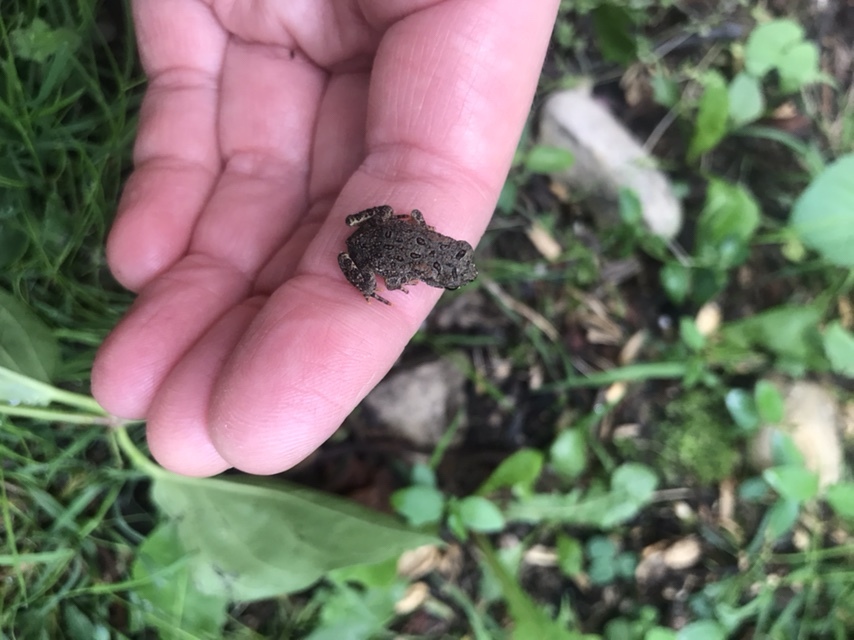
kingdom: Animalia
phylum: Chordata
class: Amphibia
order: Anura
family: Bufonidae
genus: Anaxyrus
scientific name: Anaxyrus americanus
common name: American toad
